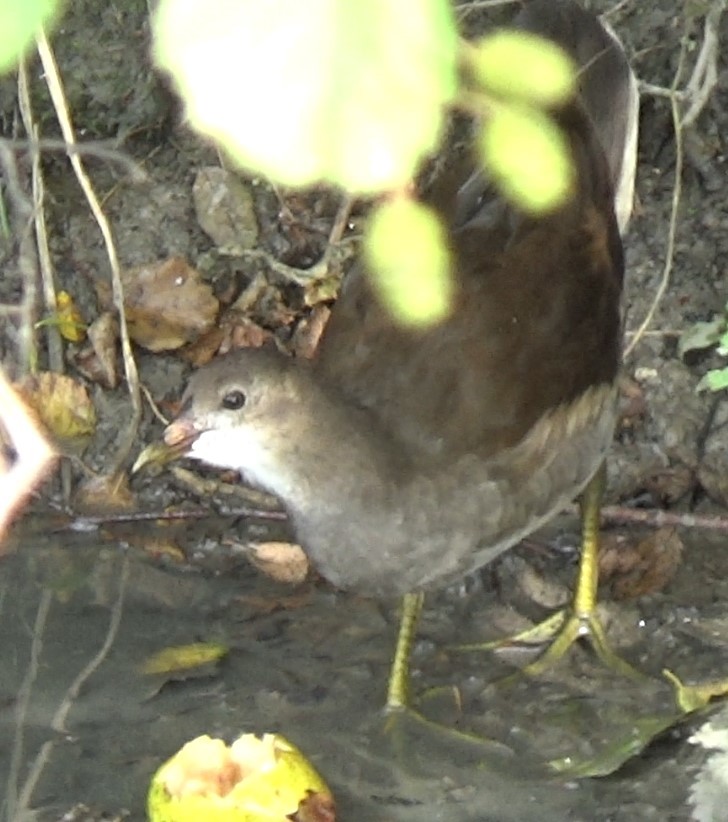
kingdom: Animalia
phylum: Chordata
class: Aves
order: Gruiformes
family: Rallidae
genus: Gallinula
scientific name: Gallinula chloropus
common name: Common moorhen
